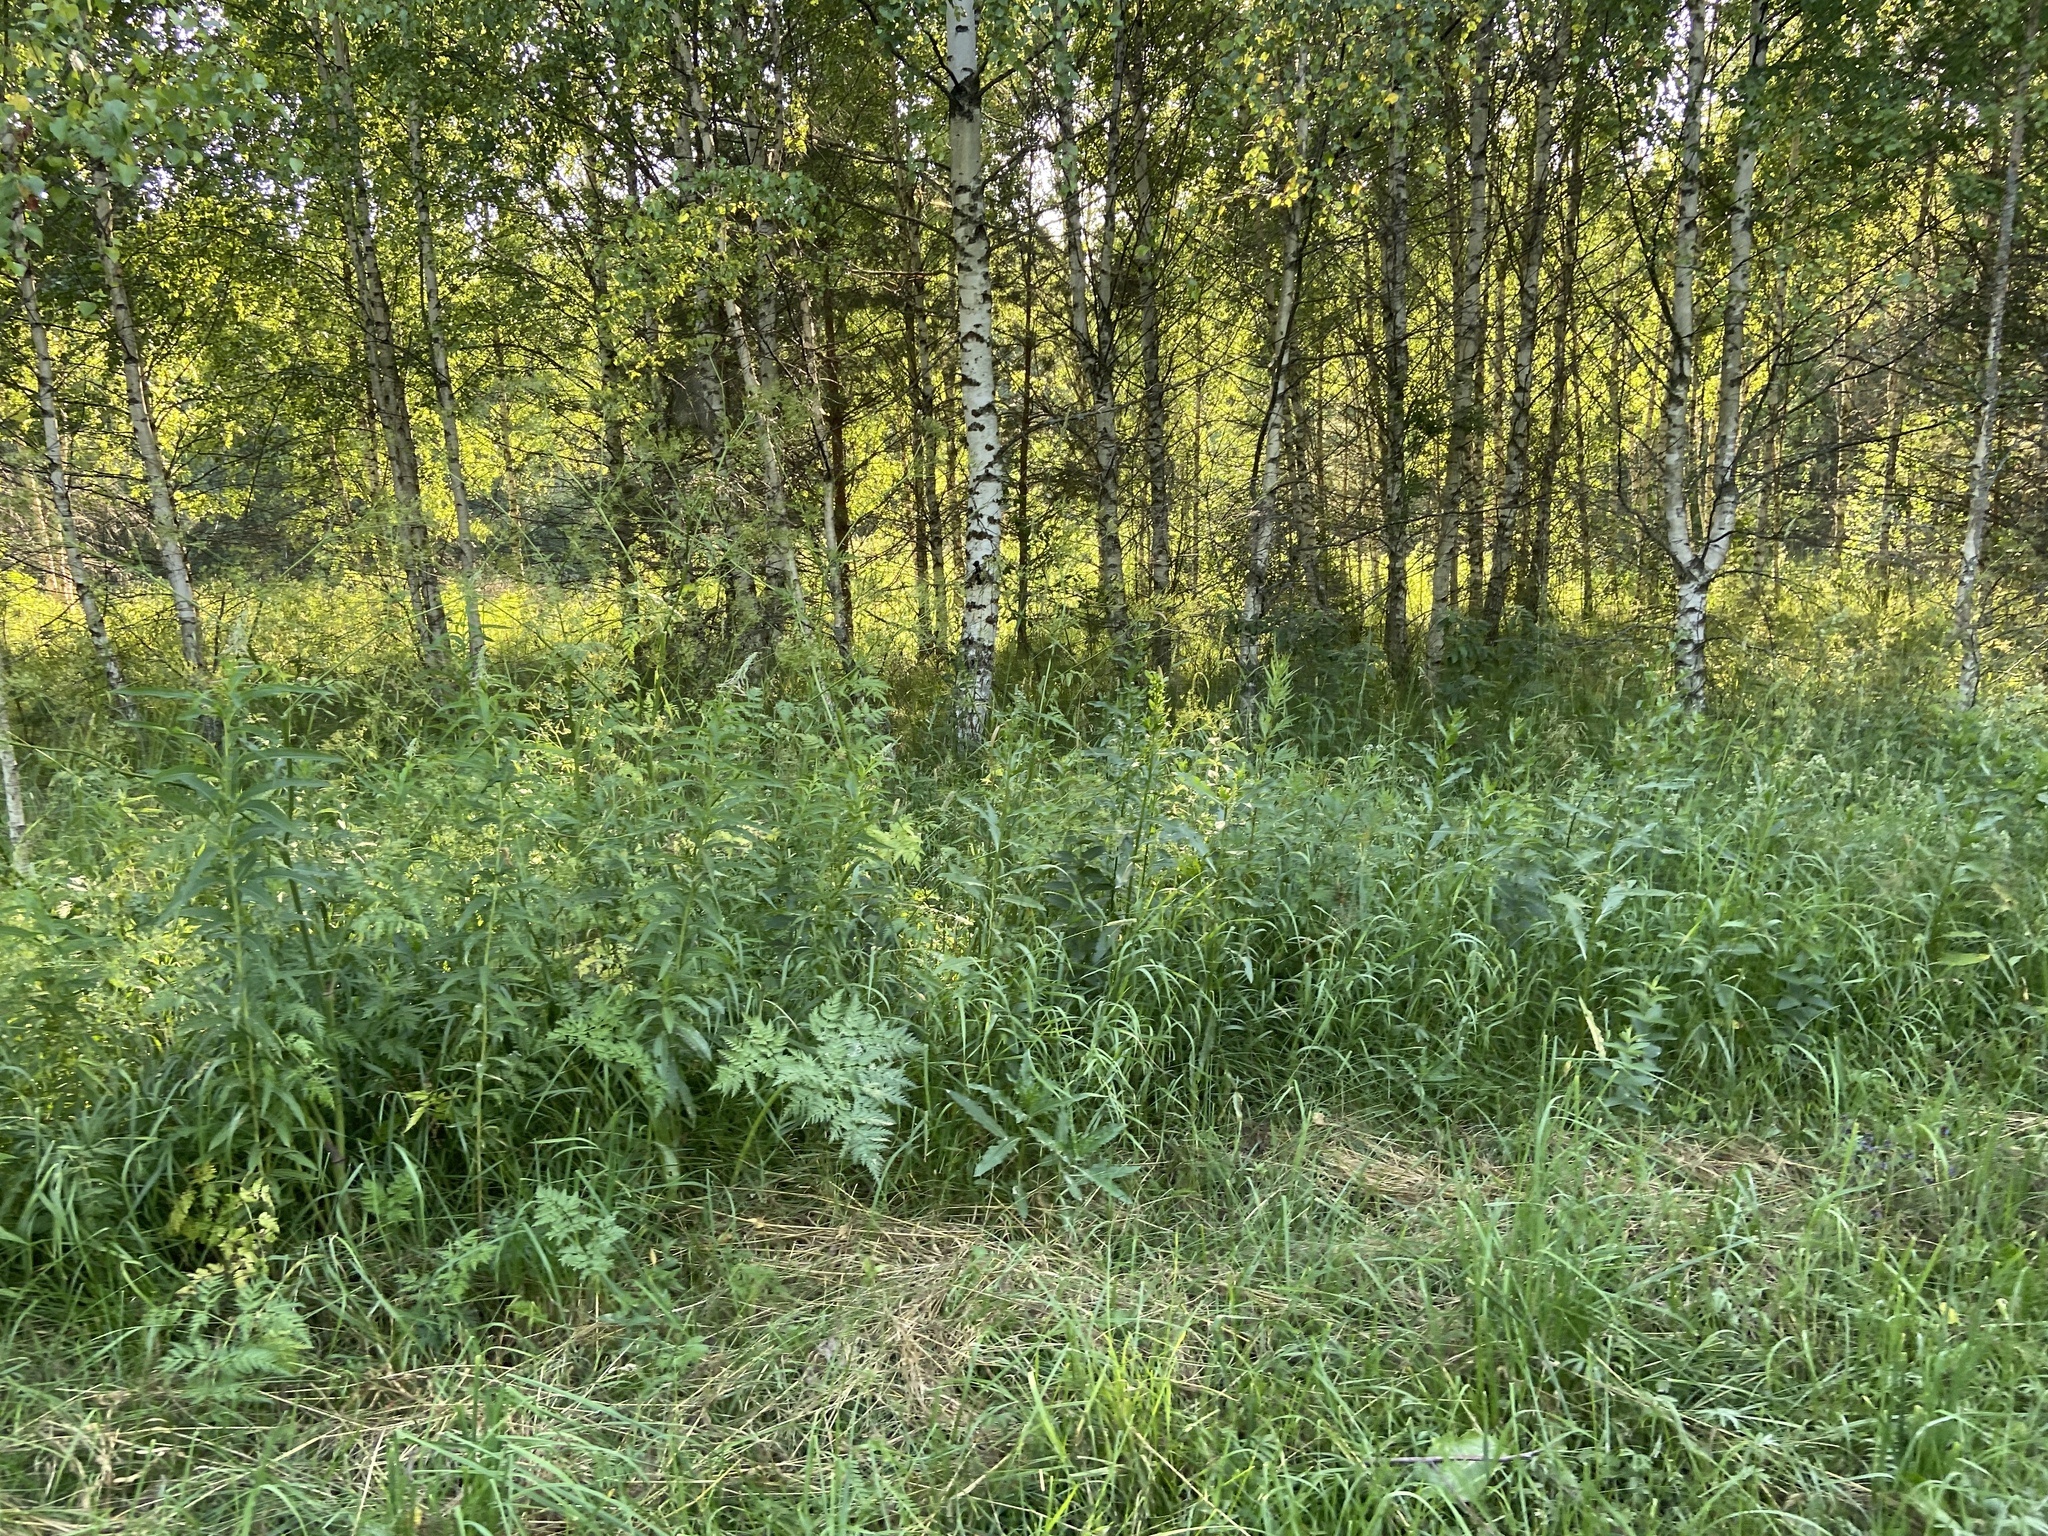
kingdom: Plantae
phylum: Tracheophyta
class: Magnoliopsida
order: Apiales
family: Apiaceae
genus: Anthriscus
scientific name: Anthriscus sylvestris
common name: Cow parsley
